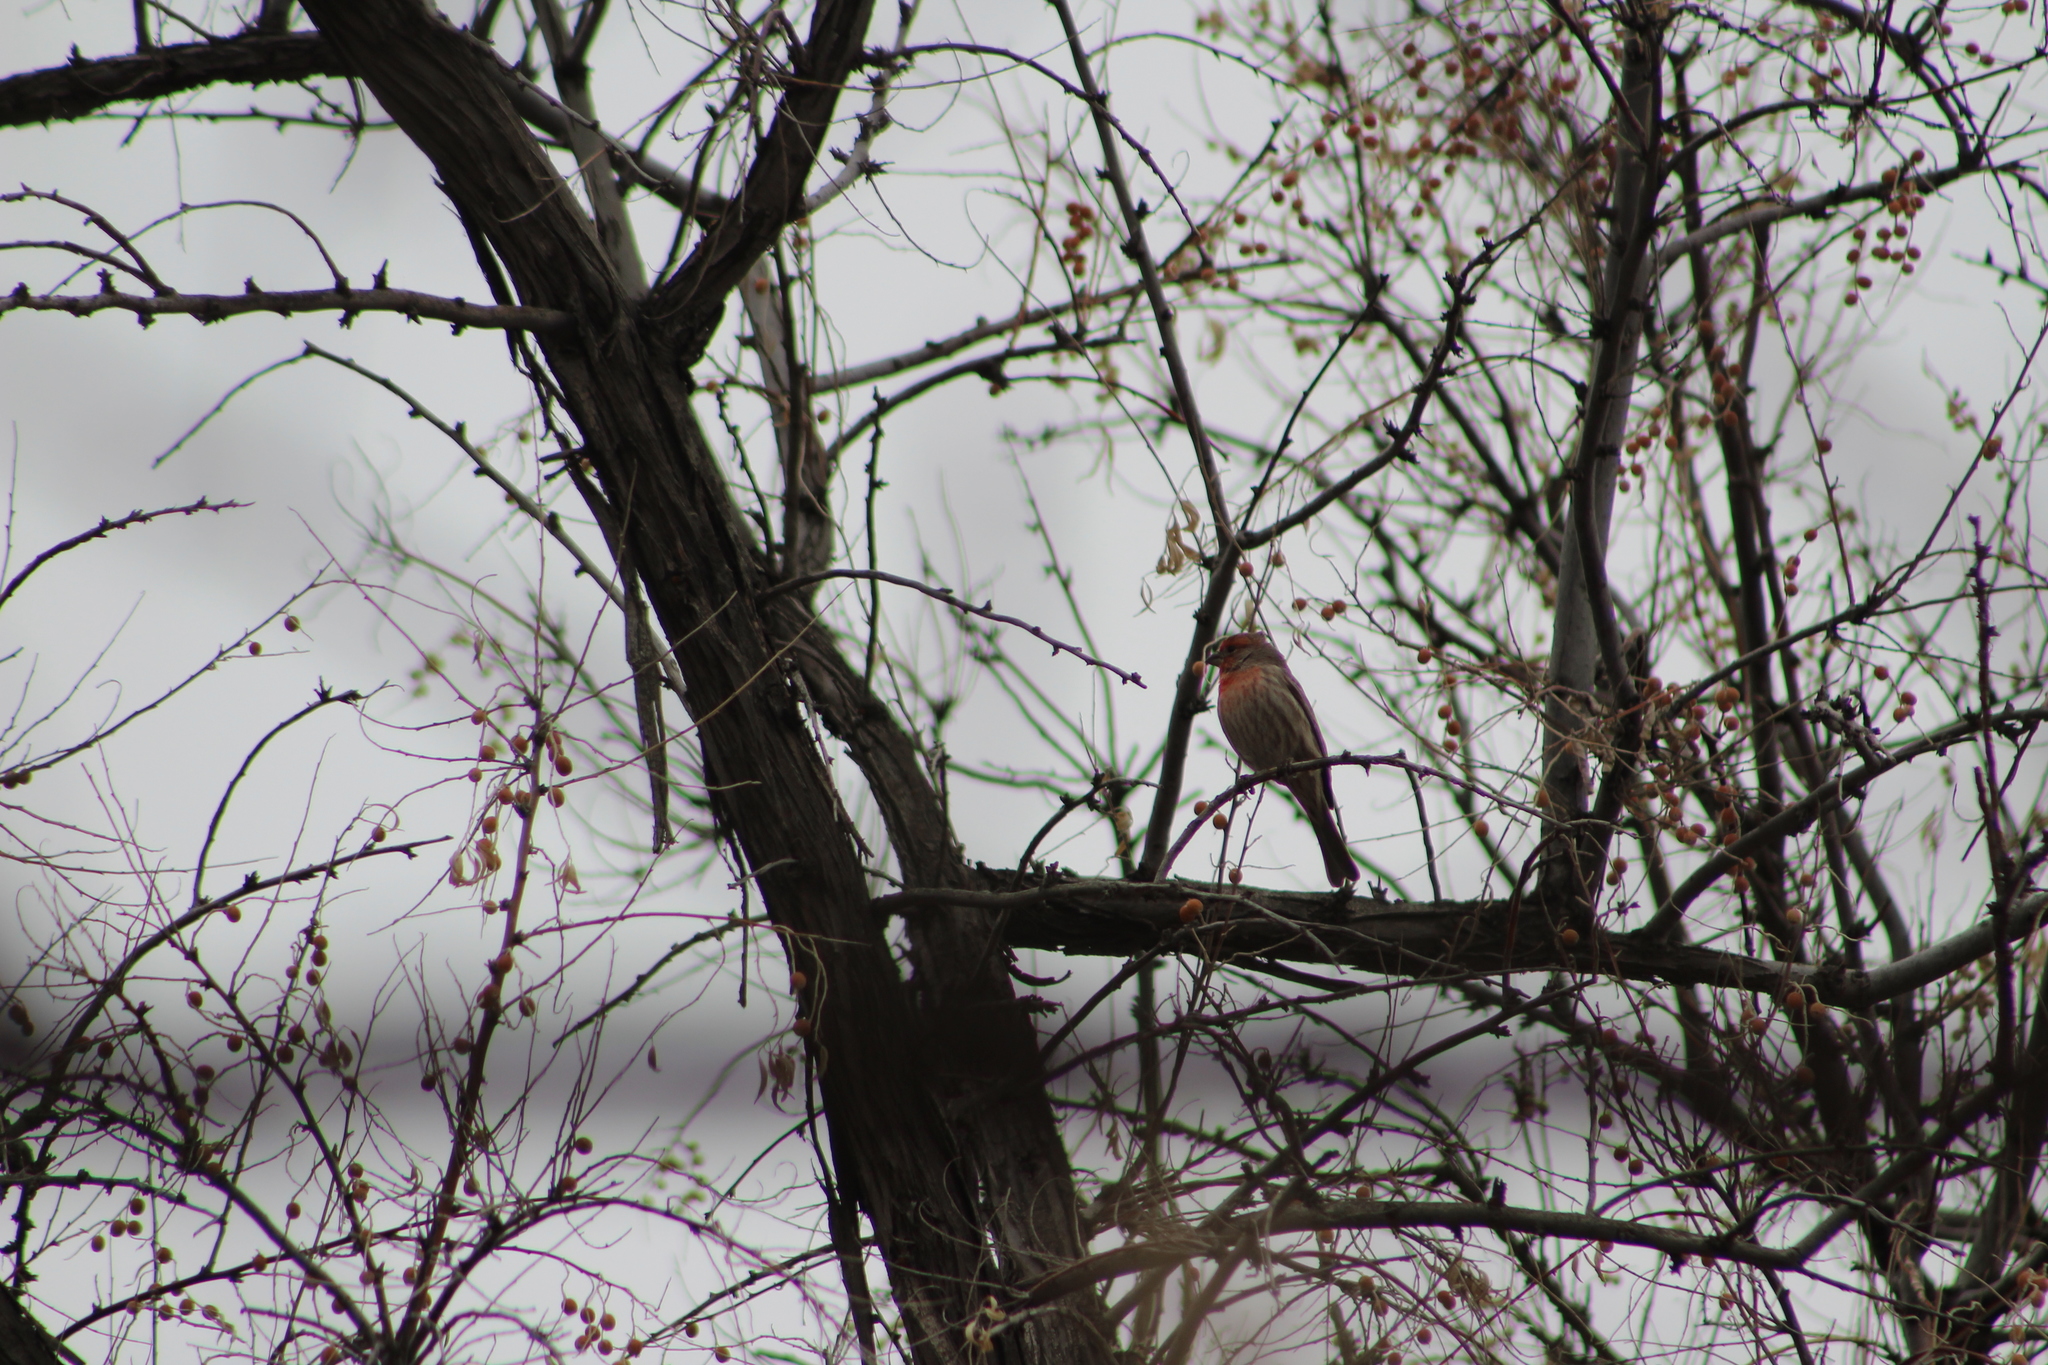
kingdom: Animalia
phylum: Chordata
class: Aves
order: Passeriformes
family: Fringillidae
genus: Haemorhous
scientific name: Haemorhous mexicanus
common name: House finch
